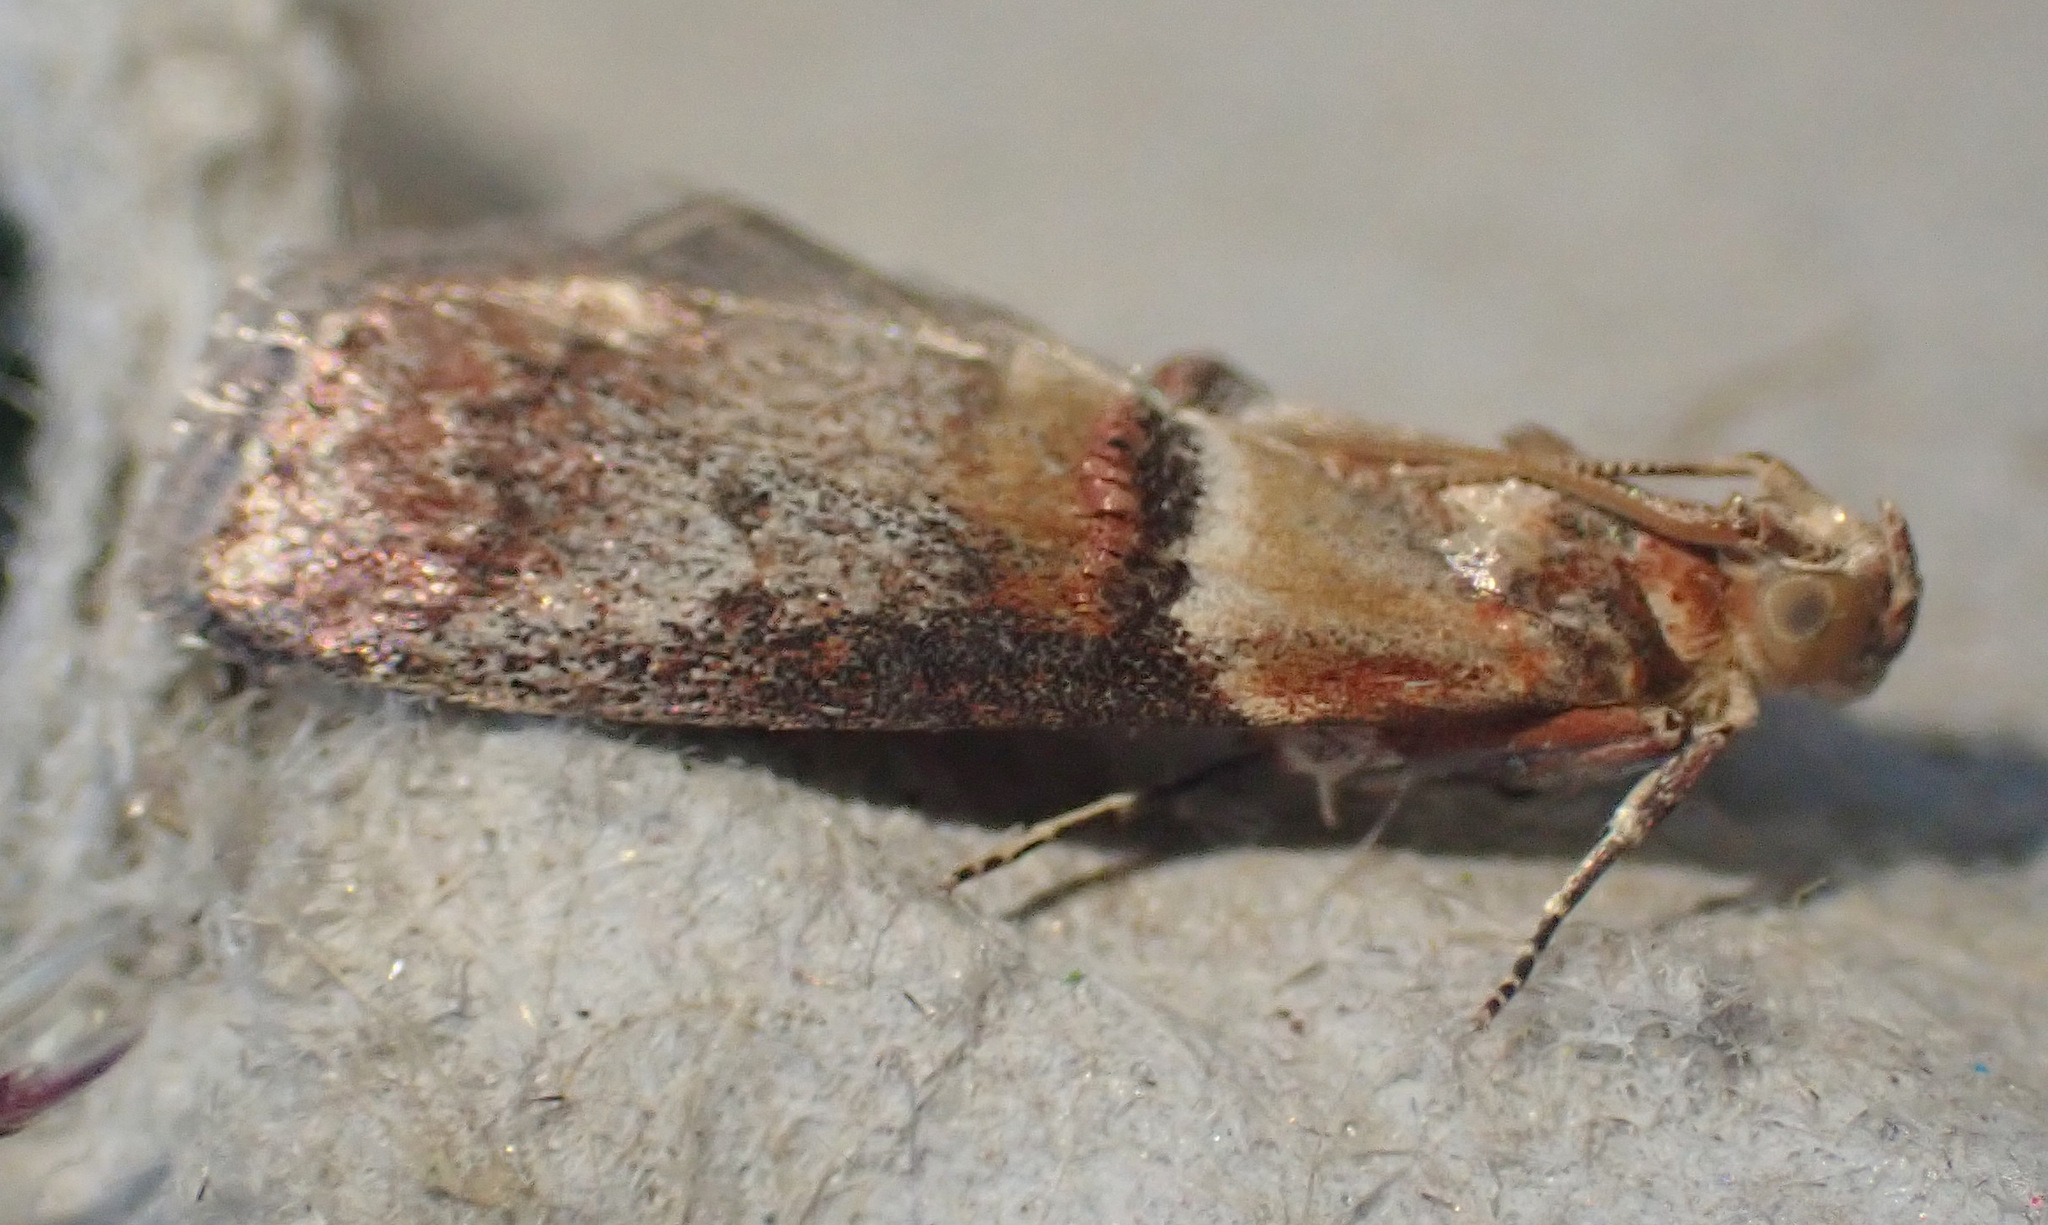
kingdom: Animalia
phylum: Arthropoda
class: Insecta
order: Lepidoptera
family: Pyralidae
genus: Acrobasis
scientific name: Acrobasis tumidana
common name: Scarce oak knot-horn
